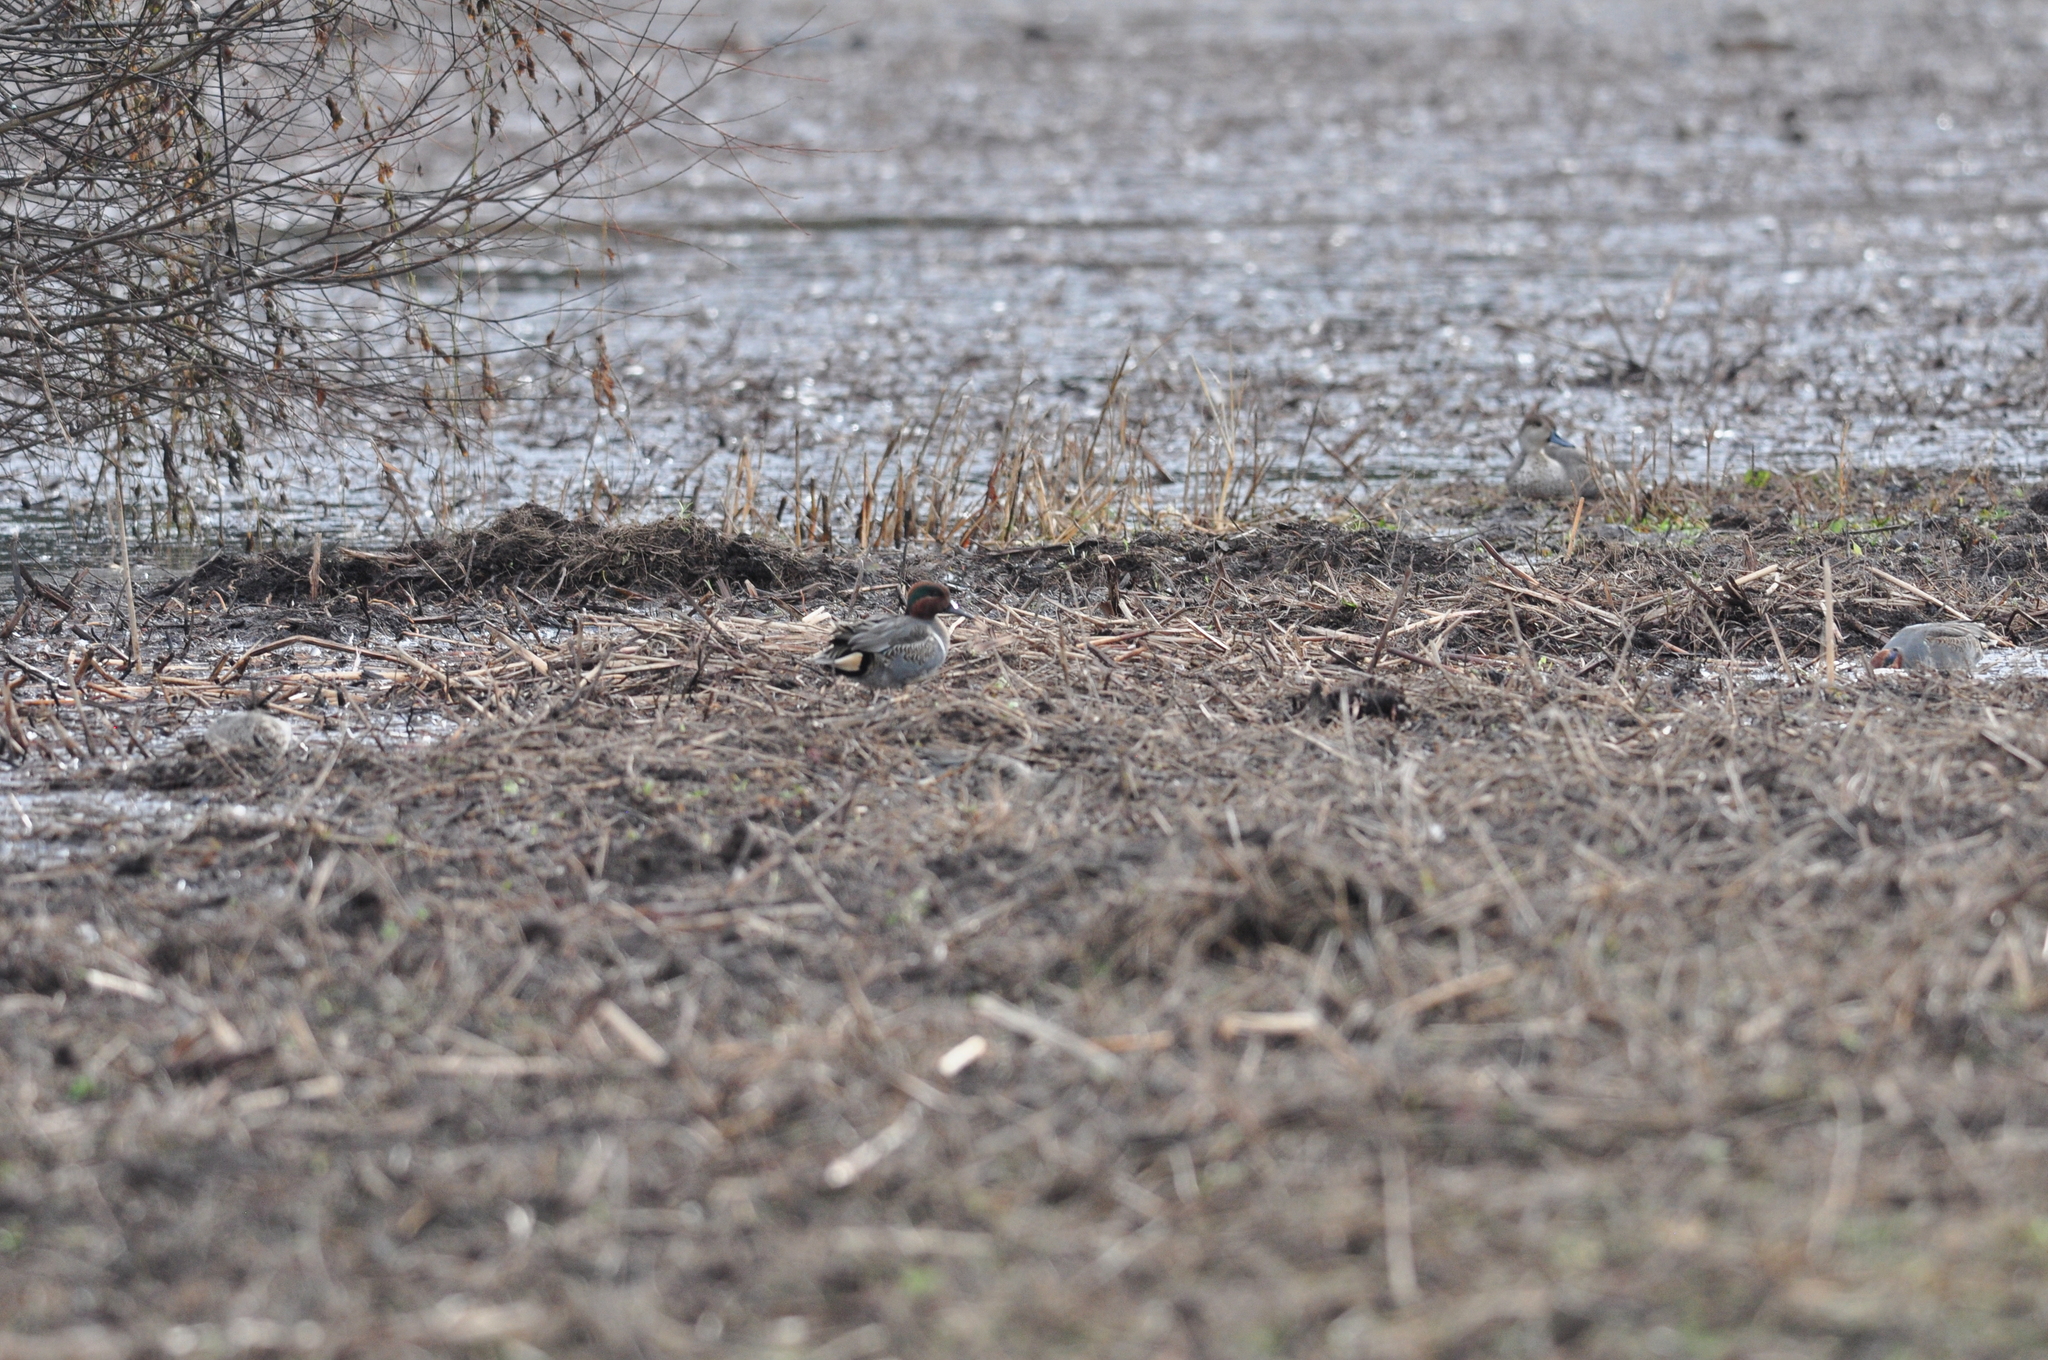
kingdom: Animalia
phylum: Chordata
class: Aves
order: Anseriformes
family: Anatidae
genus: Anas
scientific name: Anas carolinensis
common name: Green-winged teal
